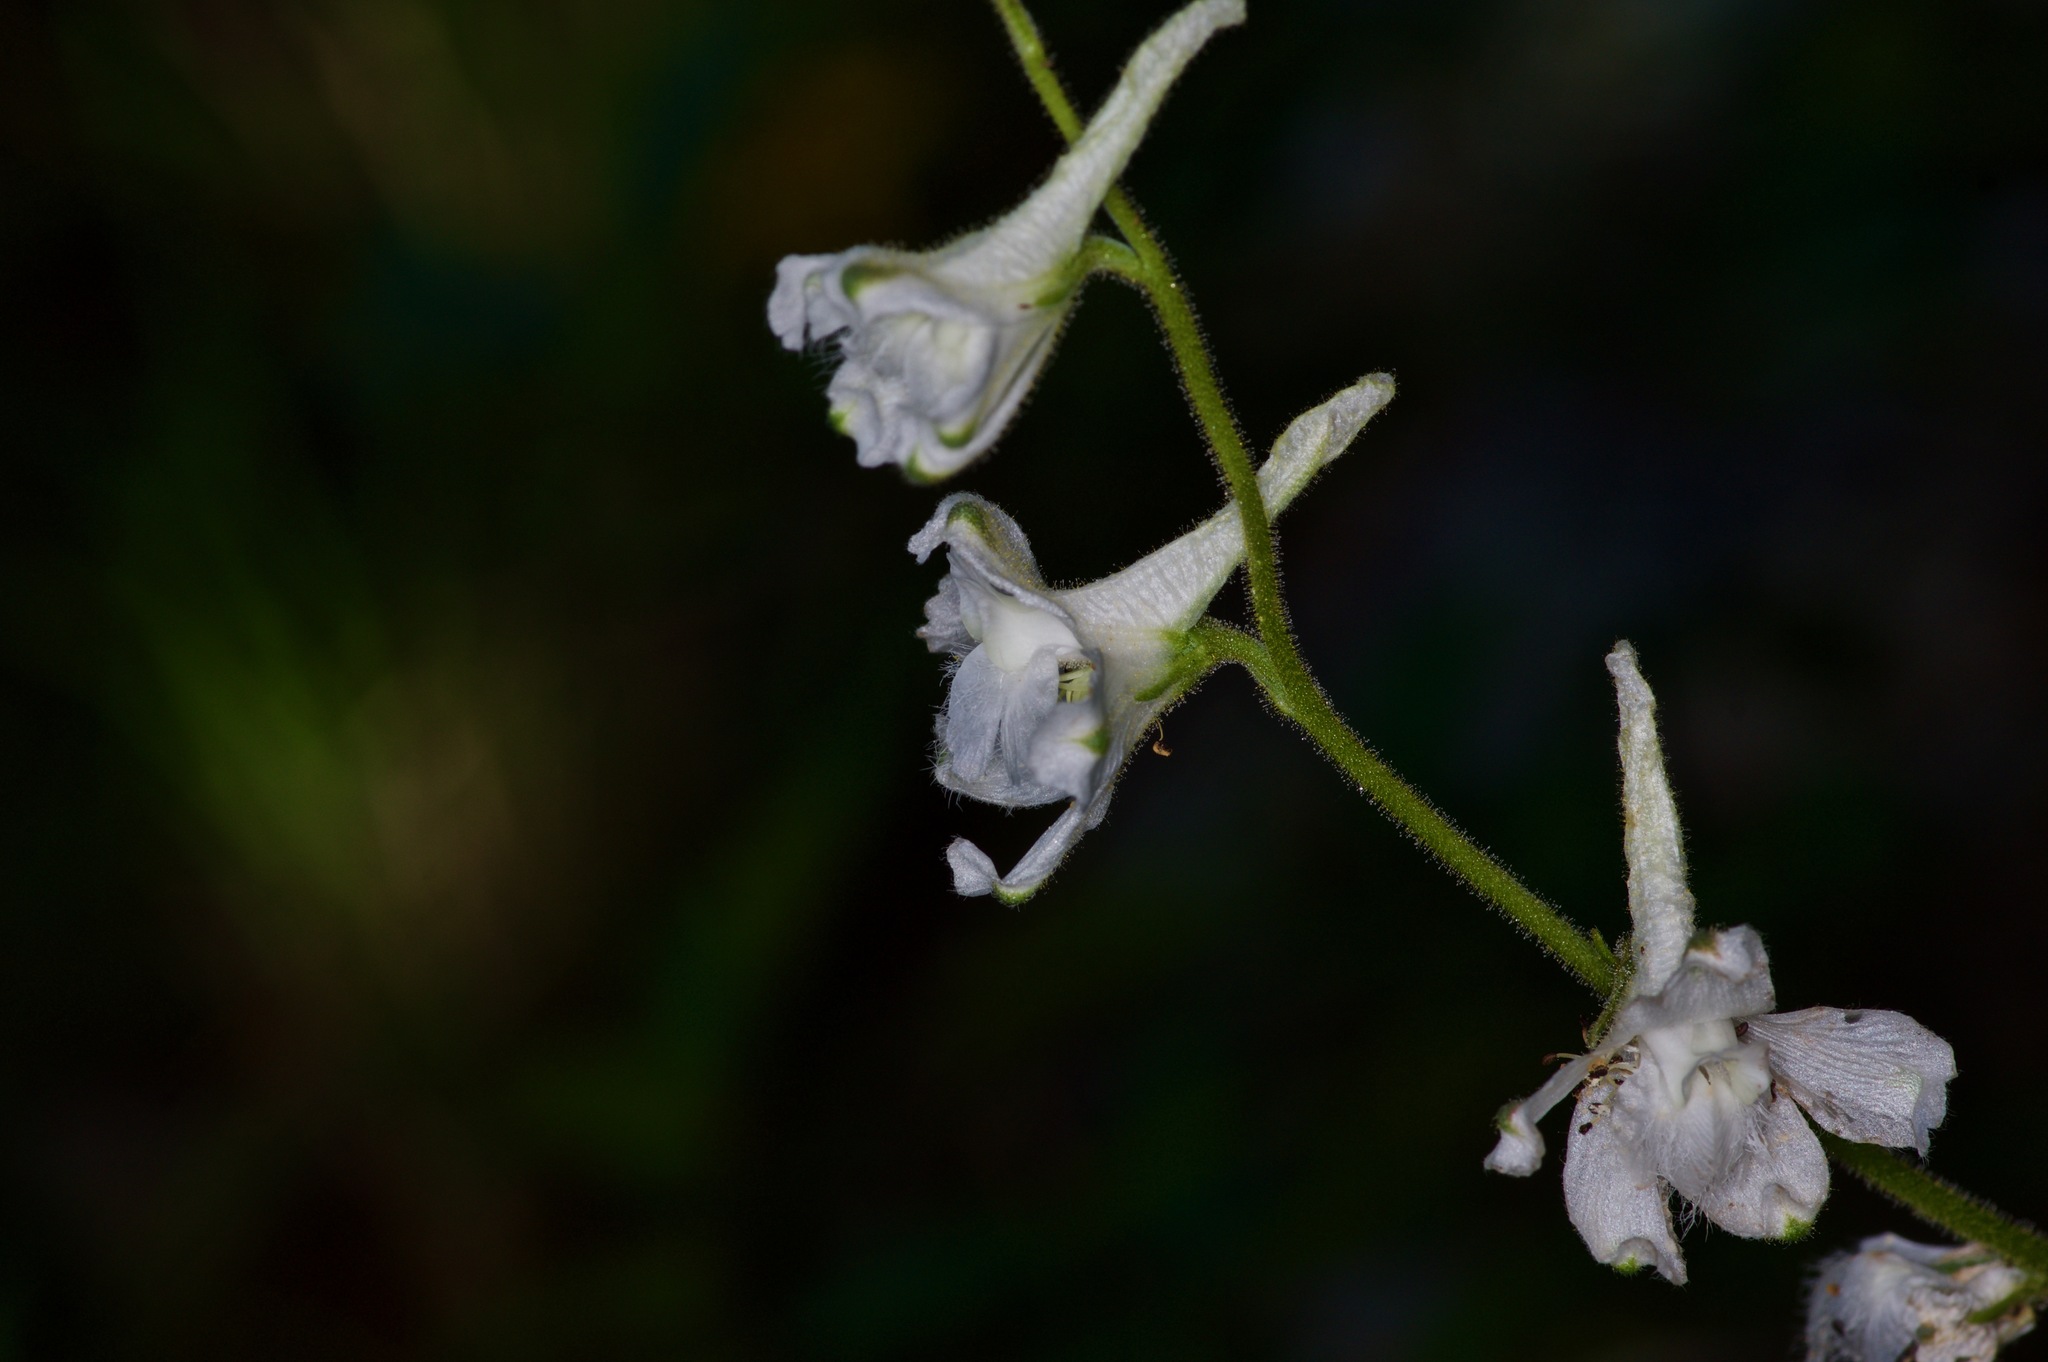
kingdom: Plantae
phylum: Tracheophyta
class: Magnoliopsida
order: Ranunculales
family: Ranunculaceae
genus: Delphinium
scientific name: Delphinium carolinianum
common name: Carolina larkspur
